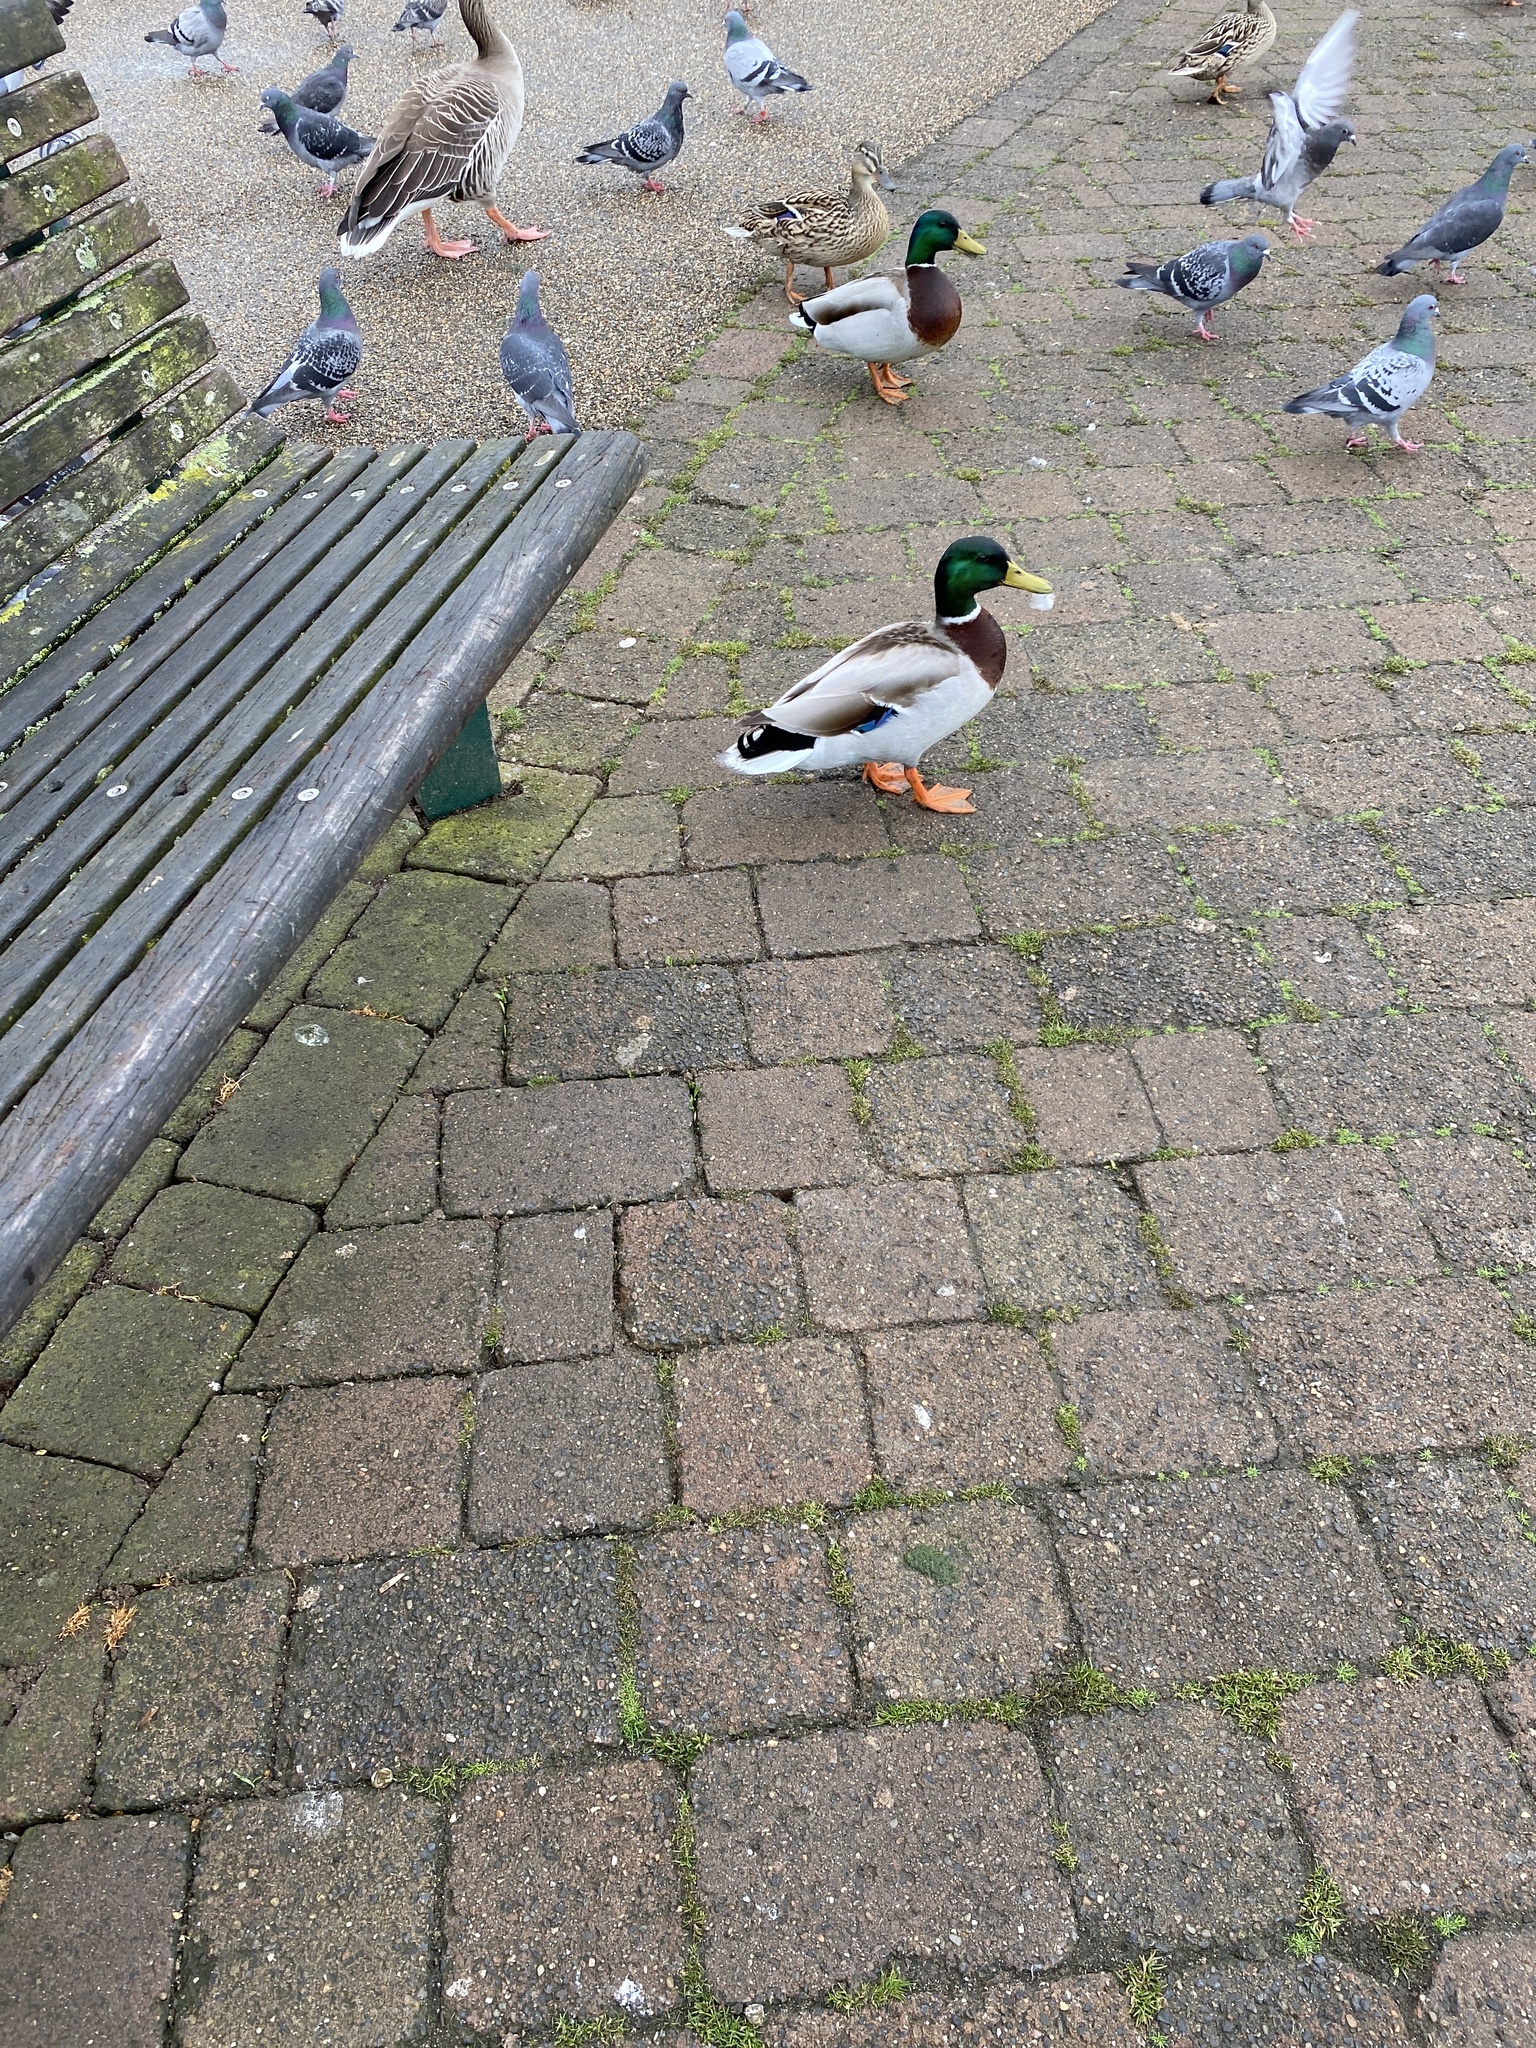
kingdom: Animalia
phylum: Chordata
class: Aves
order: Anseriformes
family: Anatidae
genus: Anas
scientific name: Anas platyrhynchos
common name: Mallard
